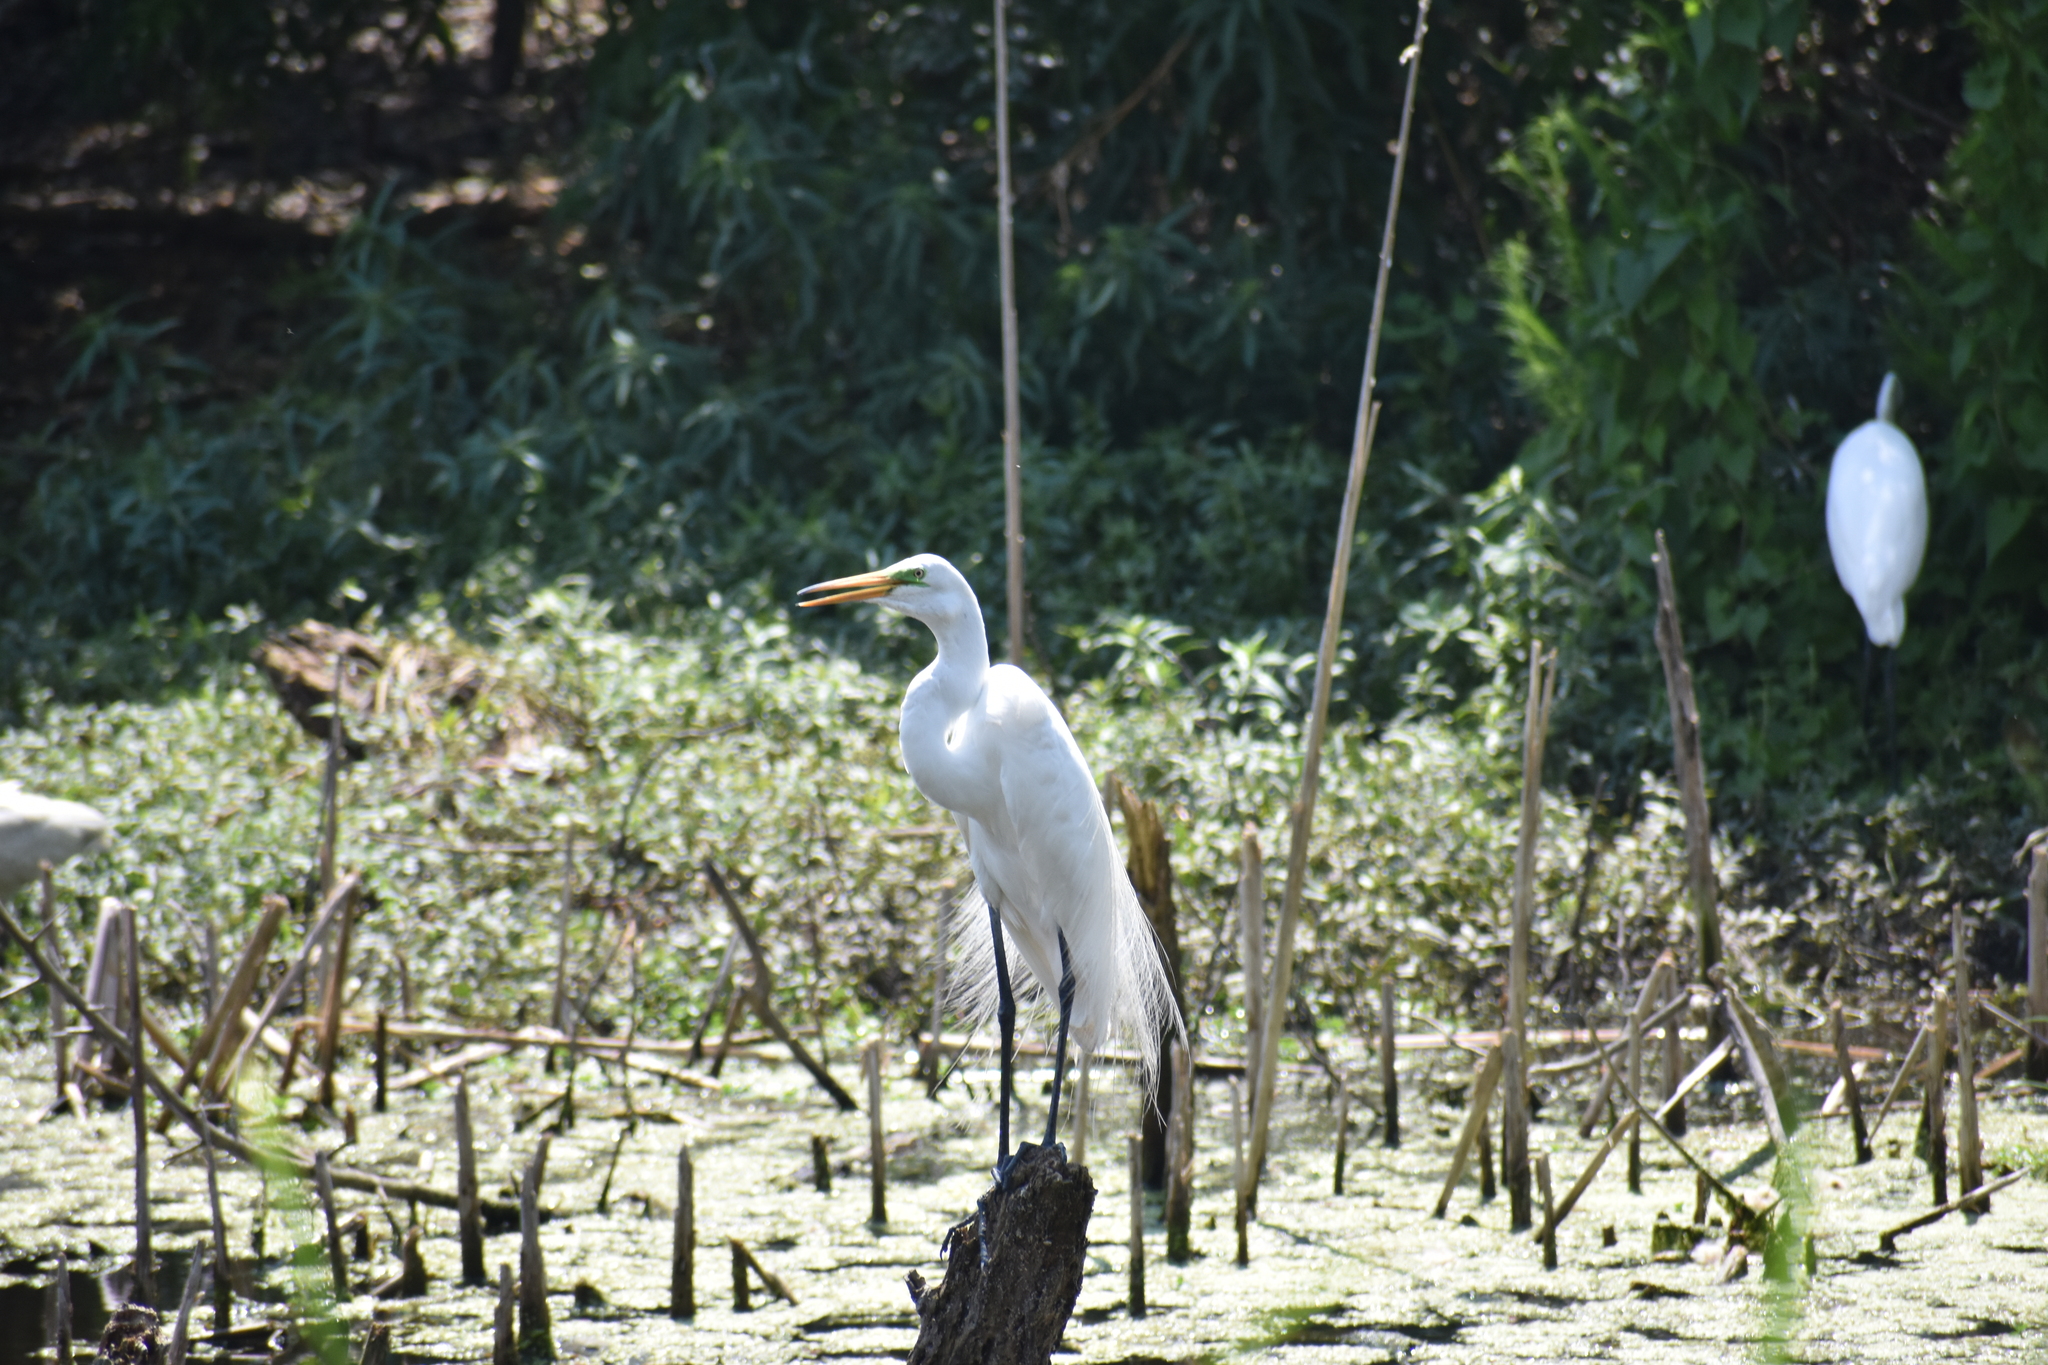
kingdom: Animalia
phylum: Chordata
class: Aves
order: Pelecaniformes
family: Ardeidae
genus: Ardea
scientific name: Ardea alba
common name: Great egret
